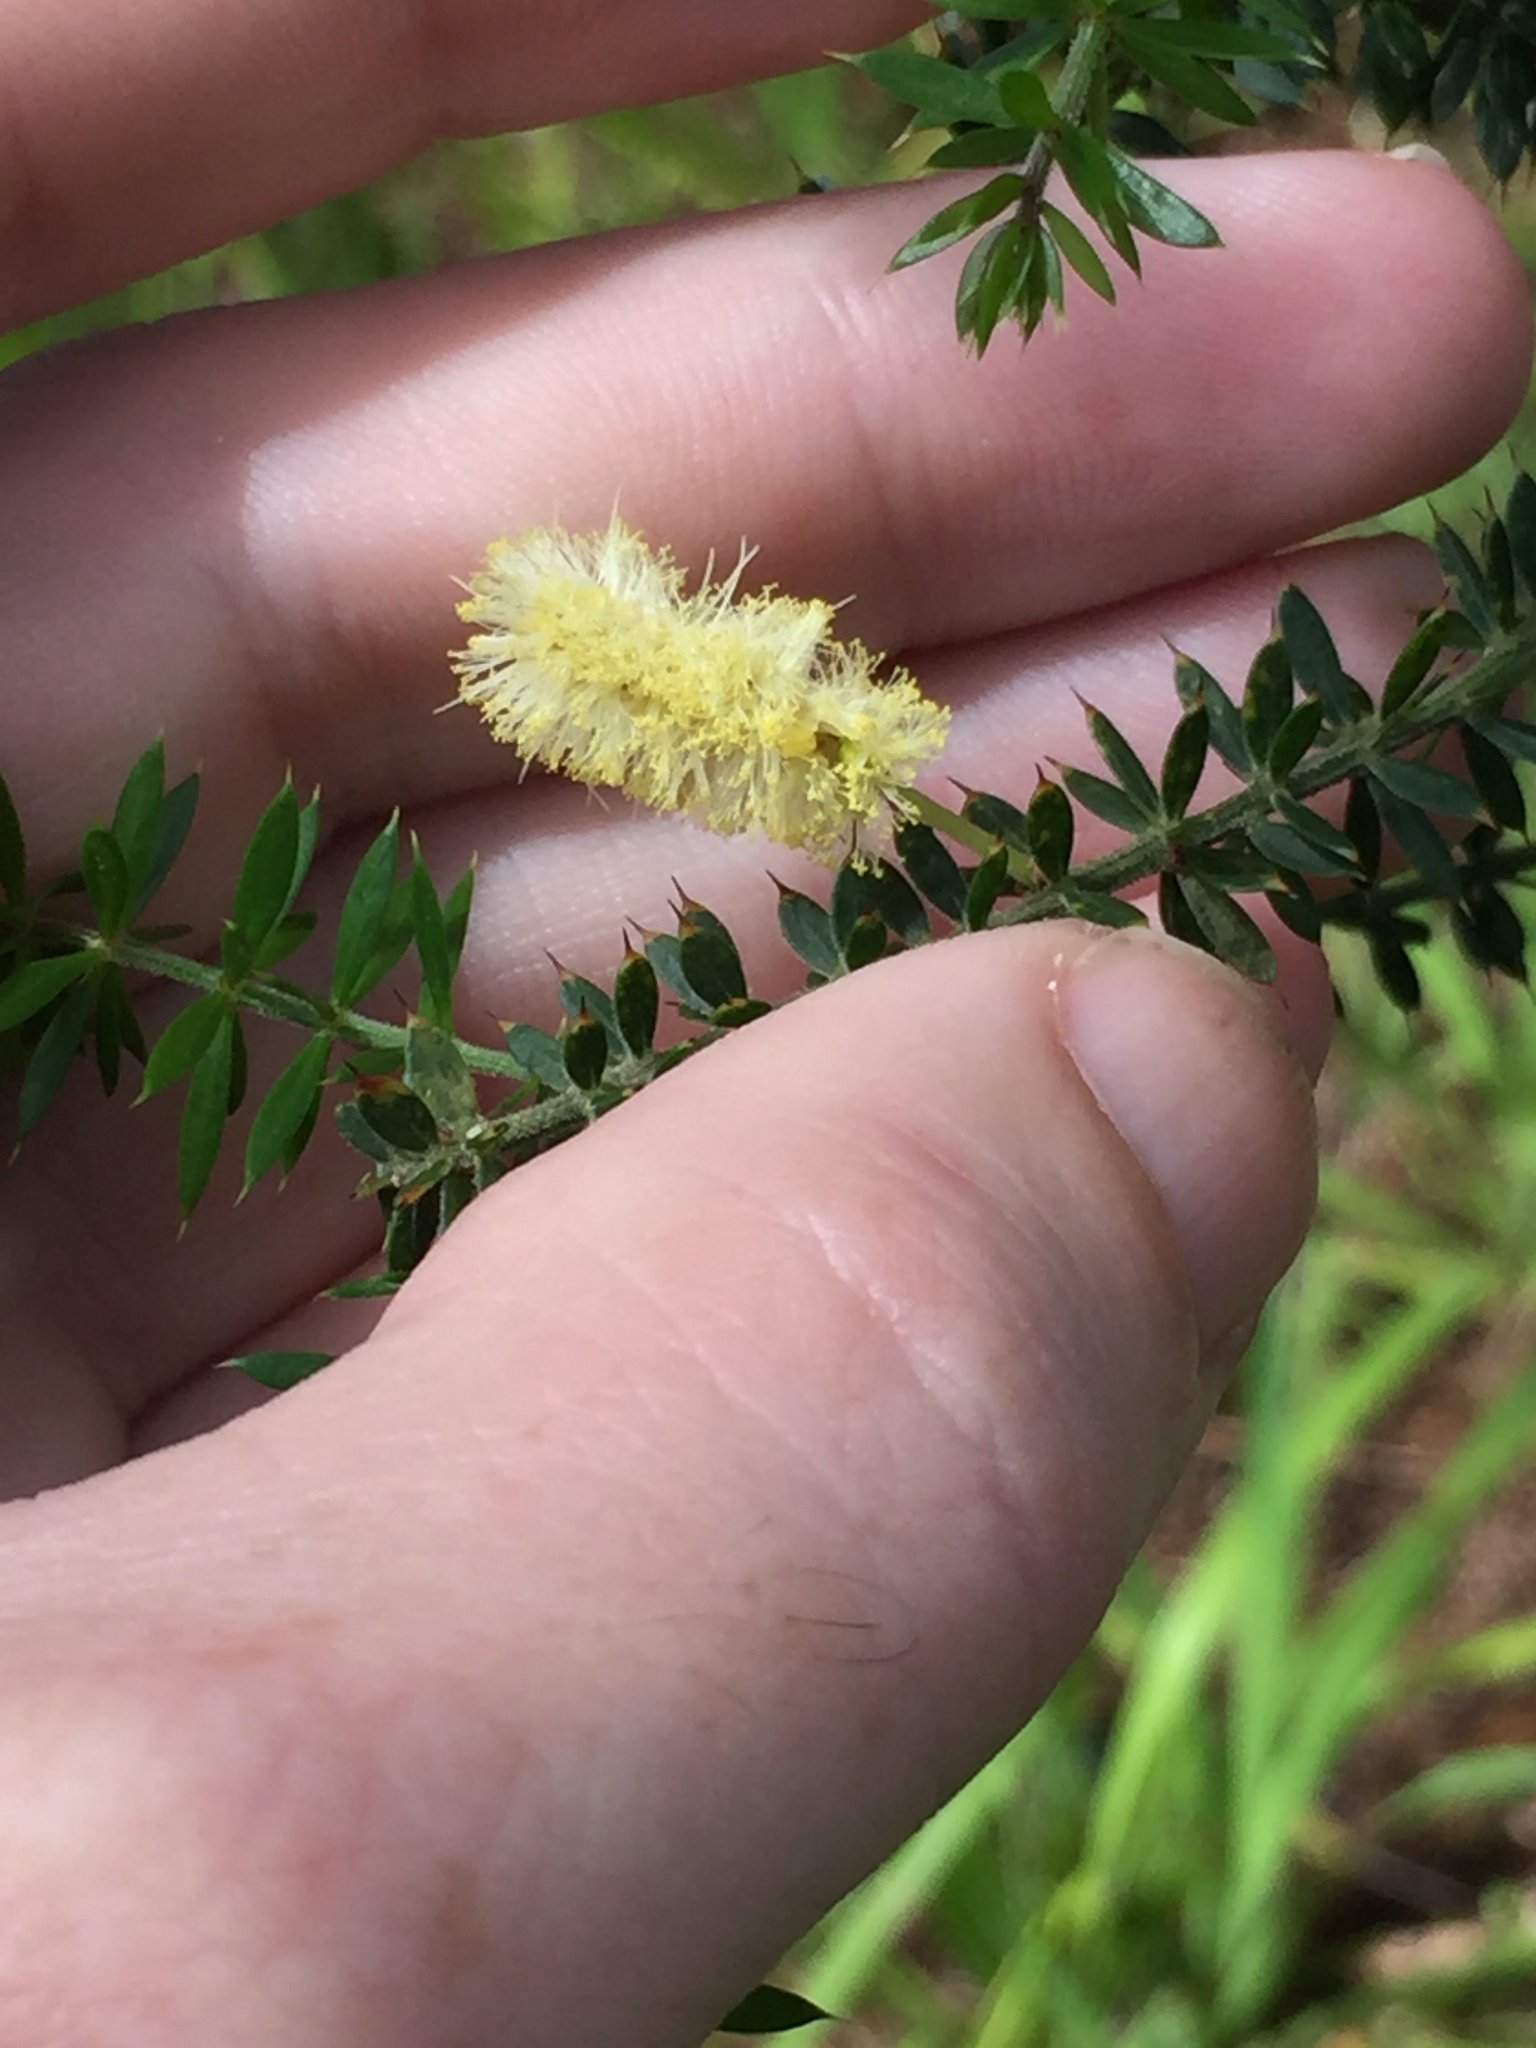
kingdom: Plantae
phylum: Tracheophyta
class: Magnoliopsida
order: Fabales
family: Fabaceae
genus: Acacia
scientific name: Acacia verticillata
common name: Prickly moses
